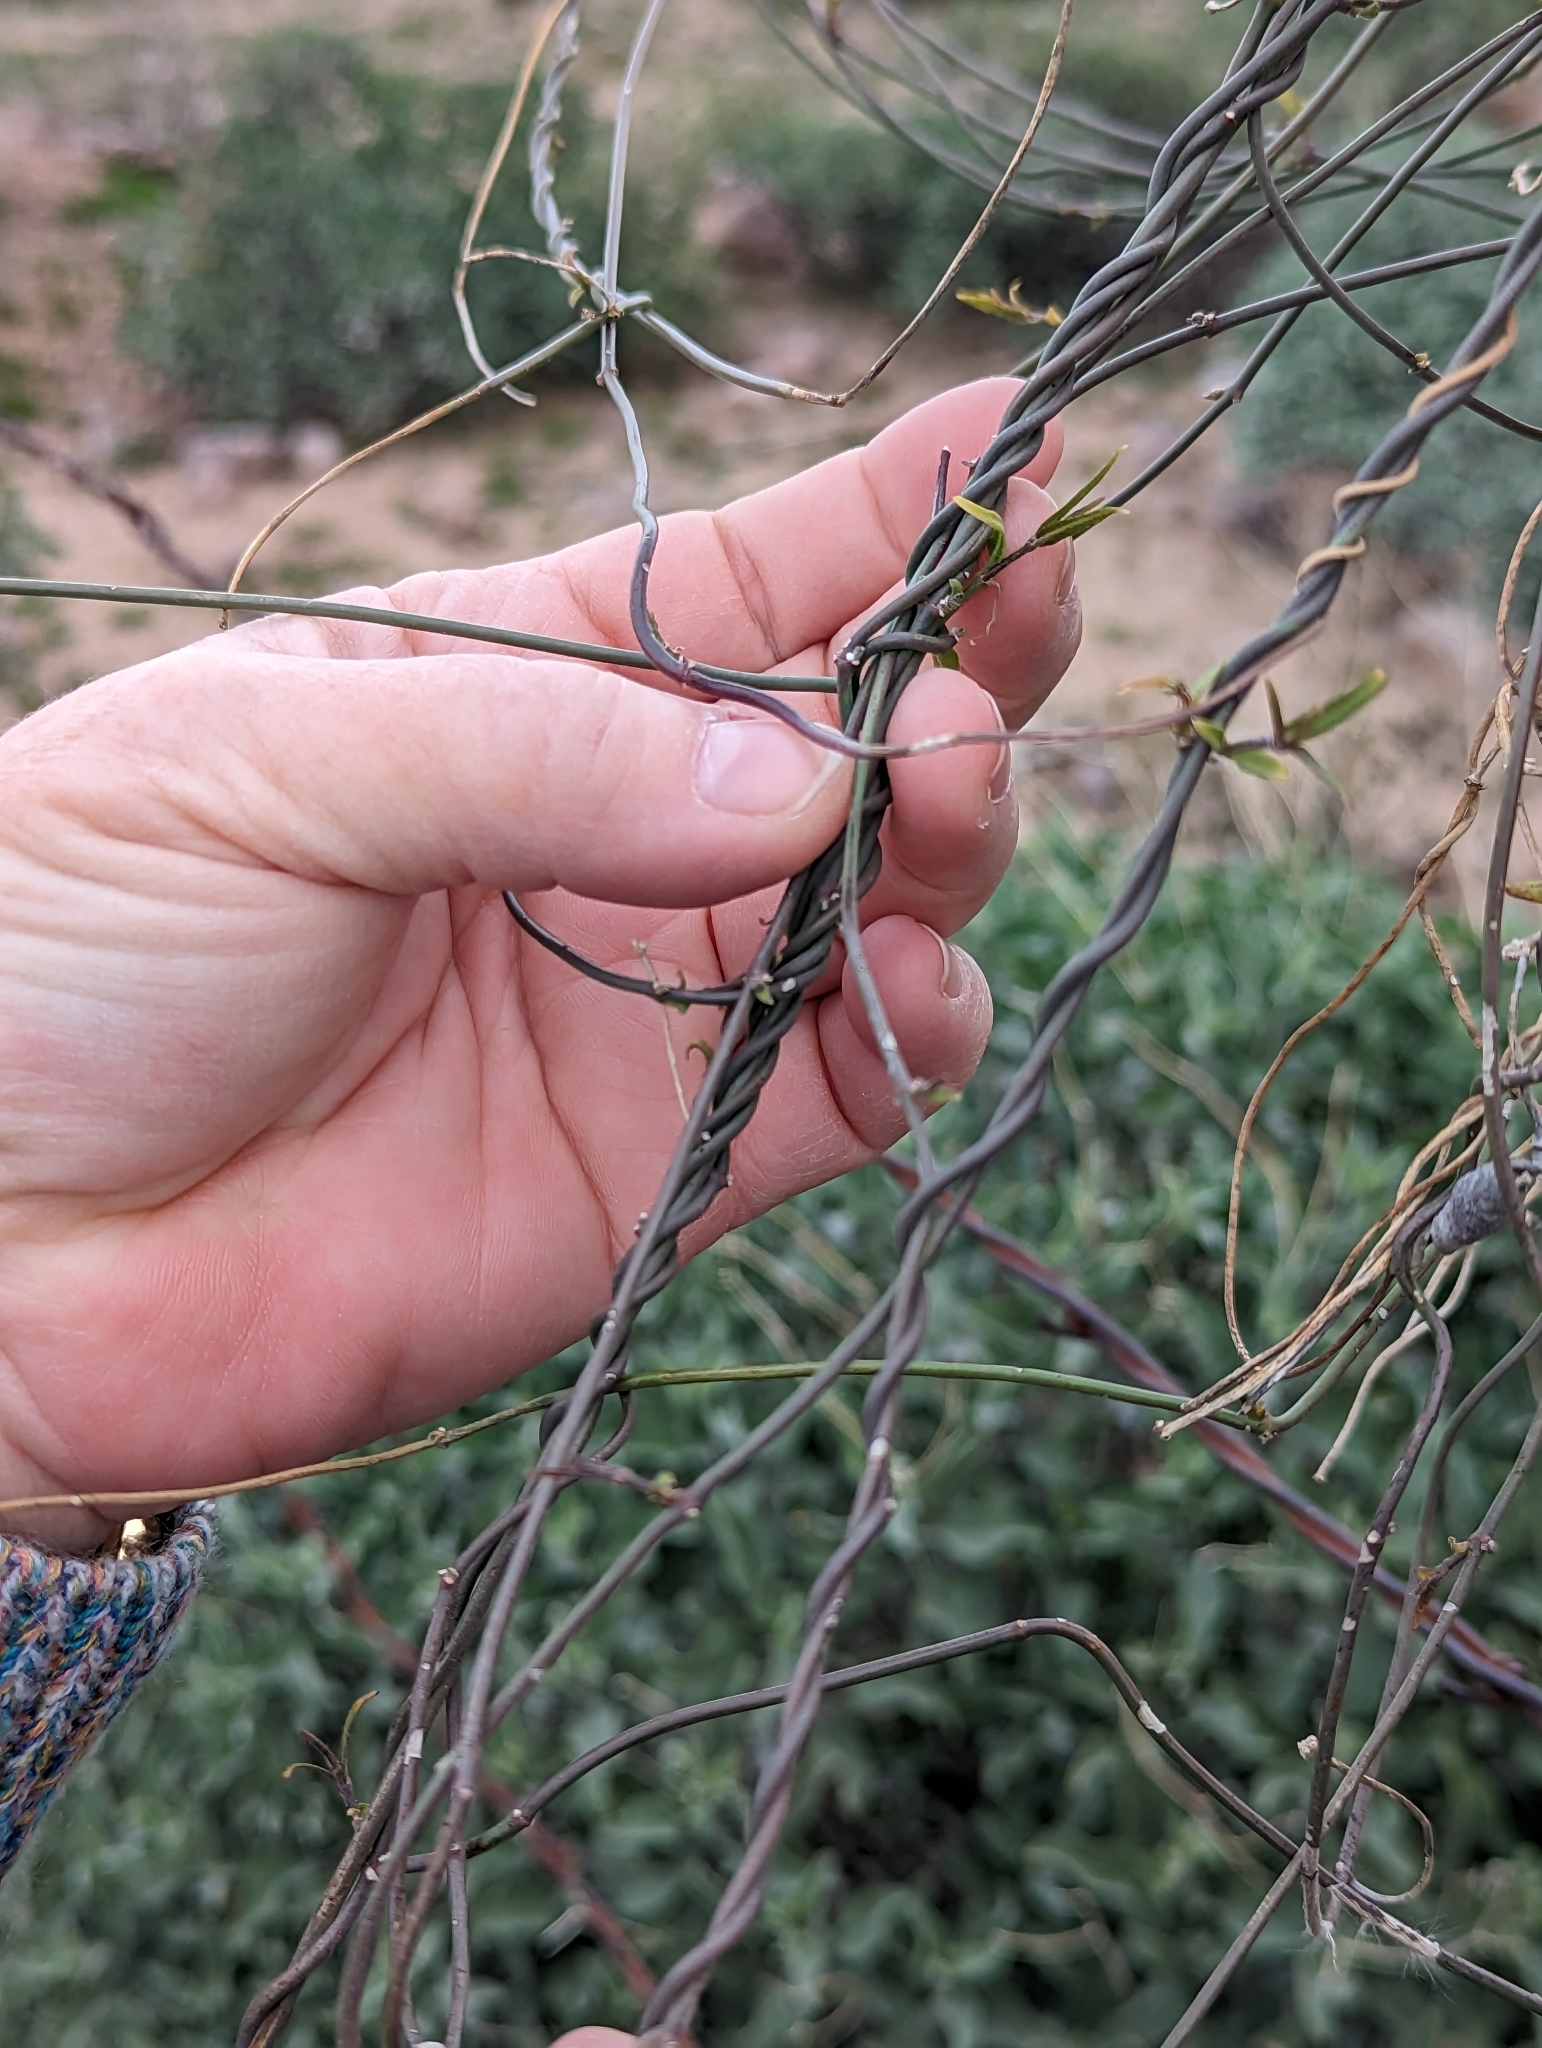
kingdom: Plantae
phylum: Tracheophyta
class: Magnoliopsida
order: Gentianales
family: Apocynaceae
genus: Funastrum
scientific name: Funastrum heterophyllum
